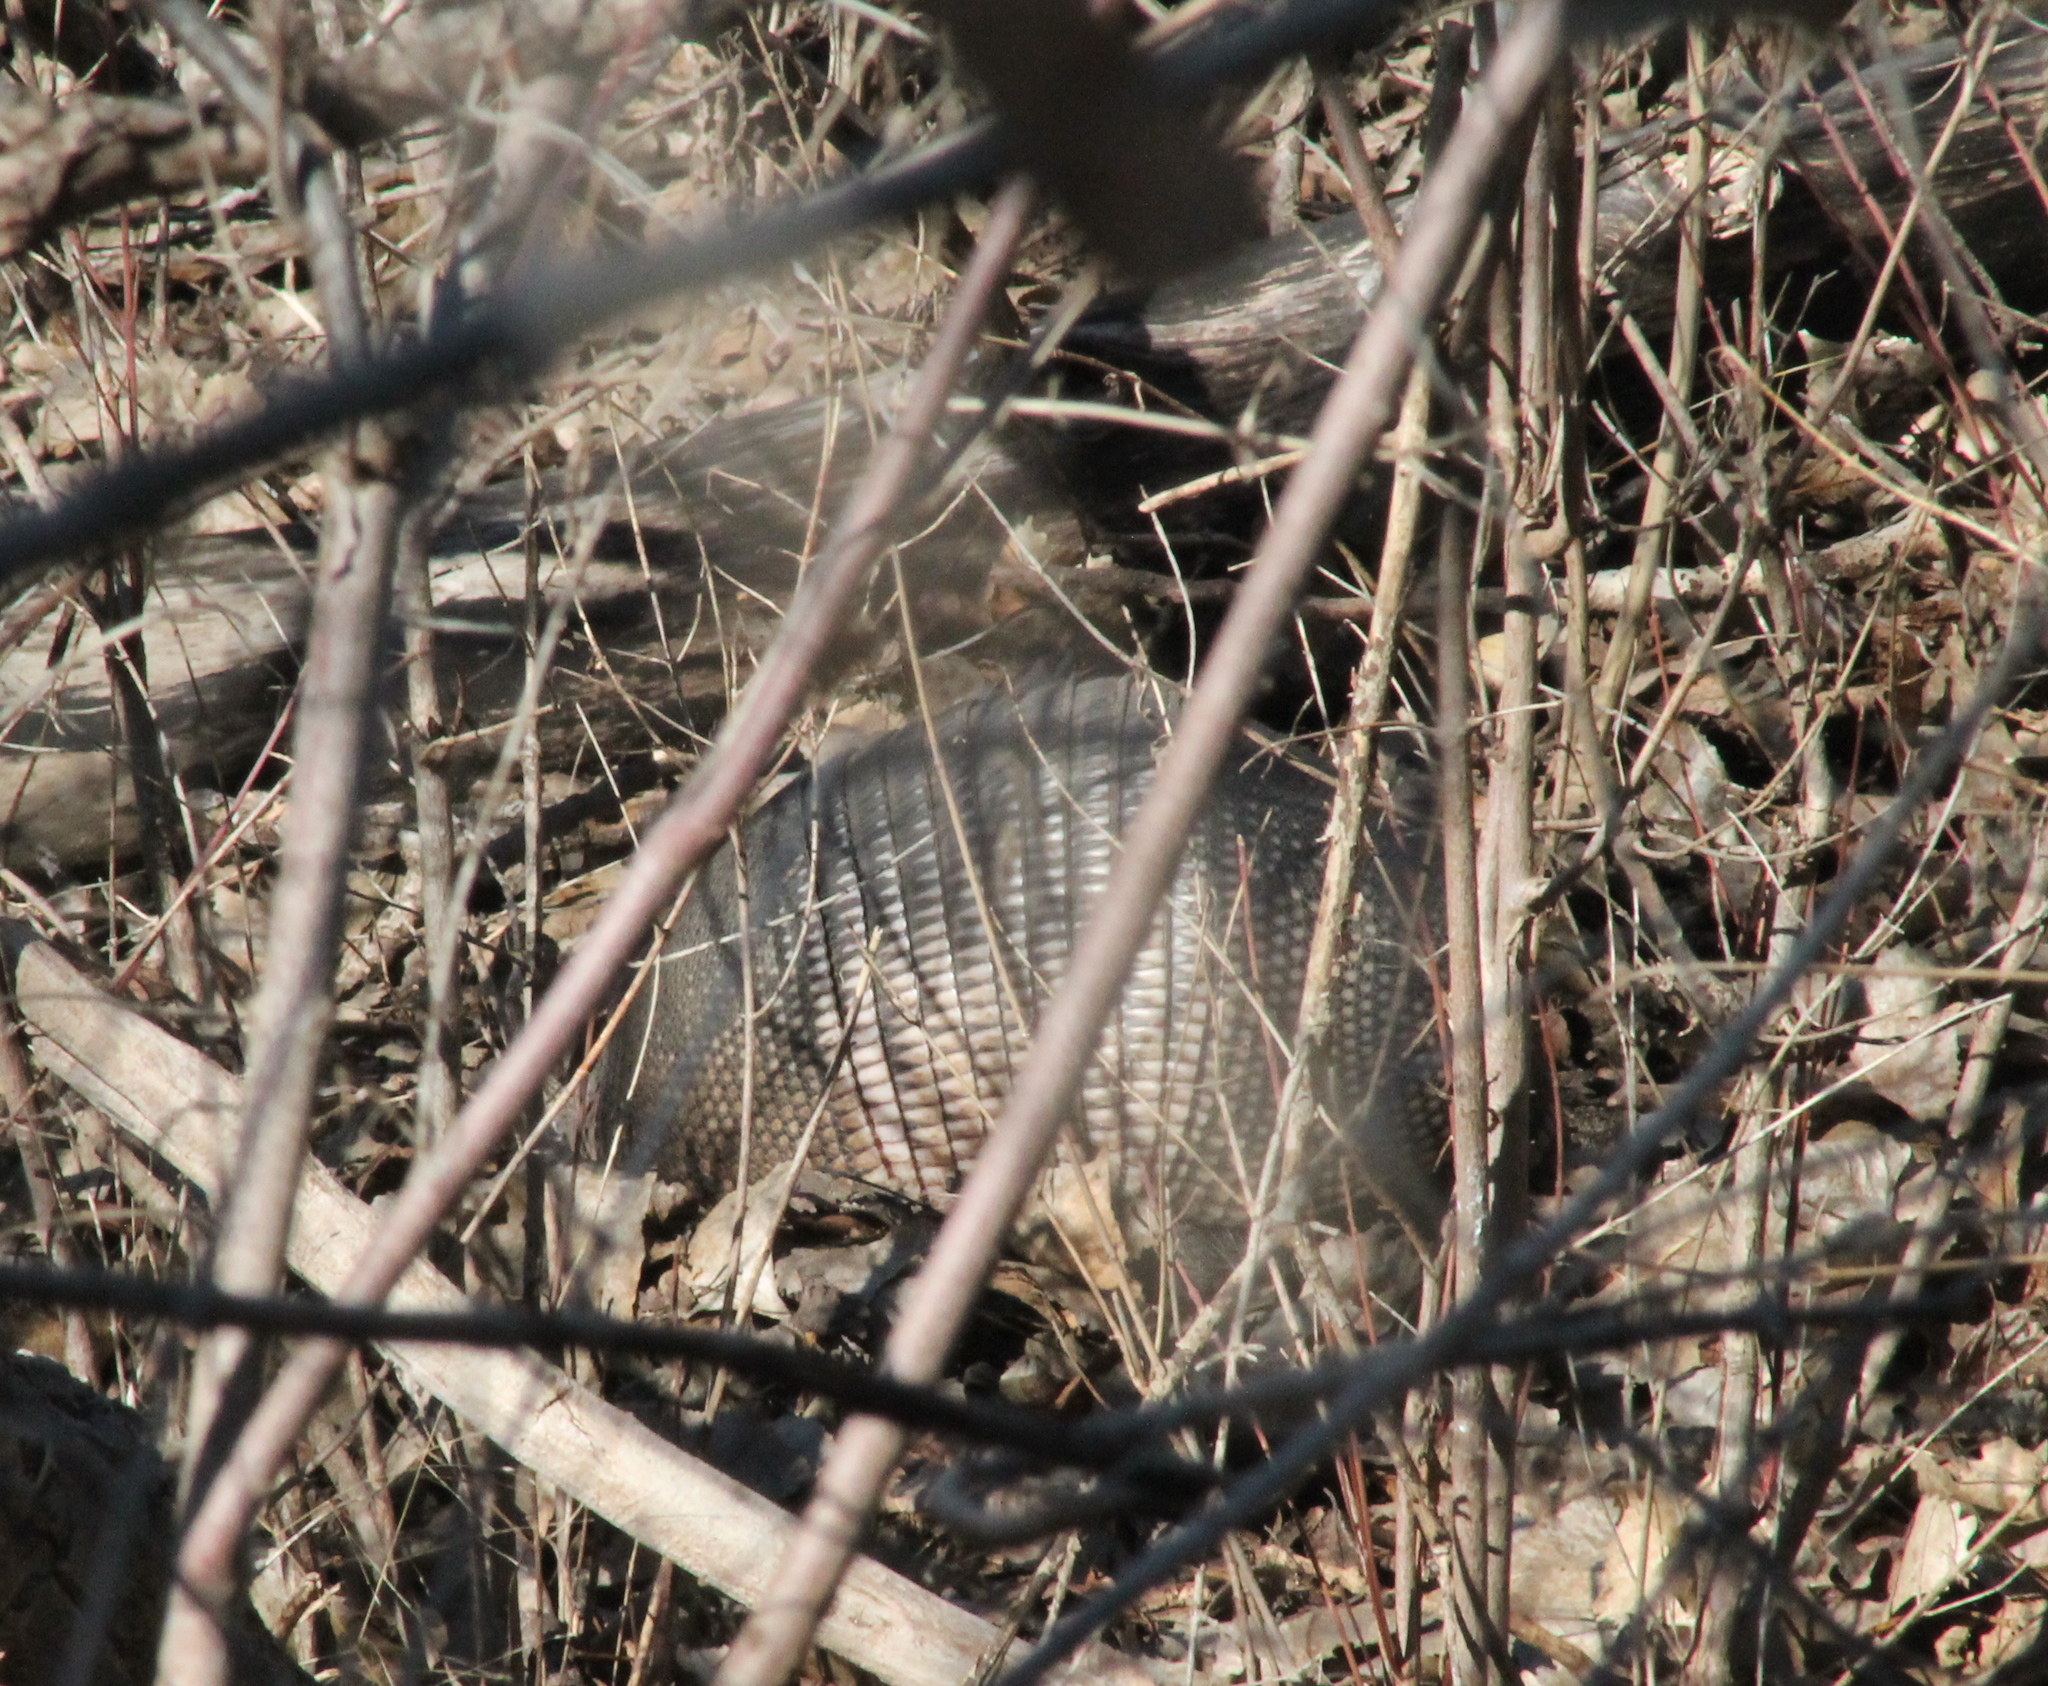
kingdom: Animalia
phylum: Chordata
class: Mammalia
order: Cingulata
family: Dasypodidae
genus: Dasypus
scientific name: Dasypus novemcinctus
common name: Nine-banded armadillo
